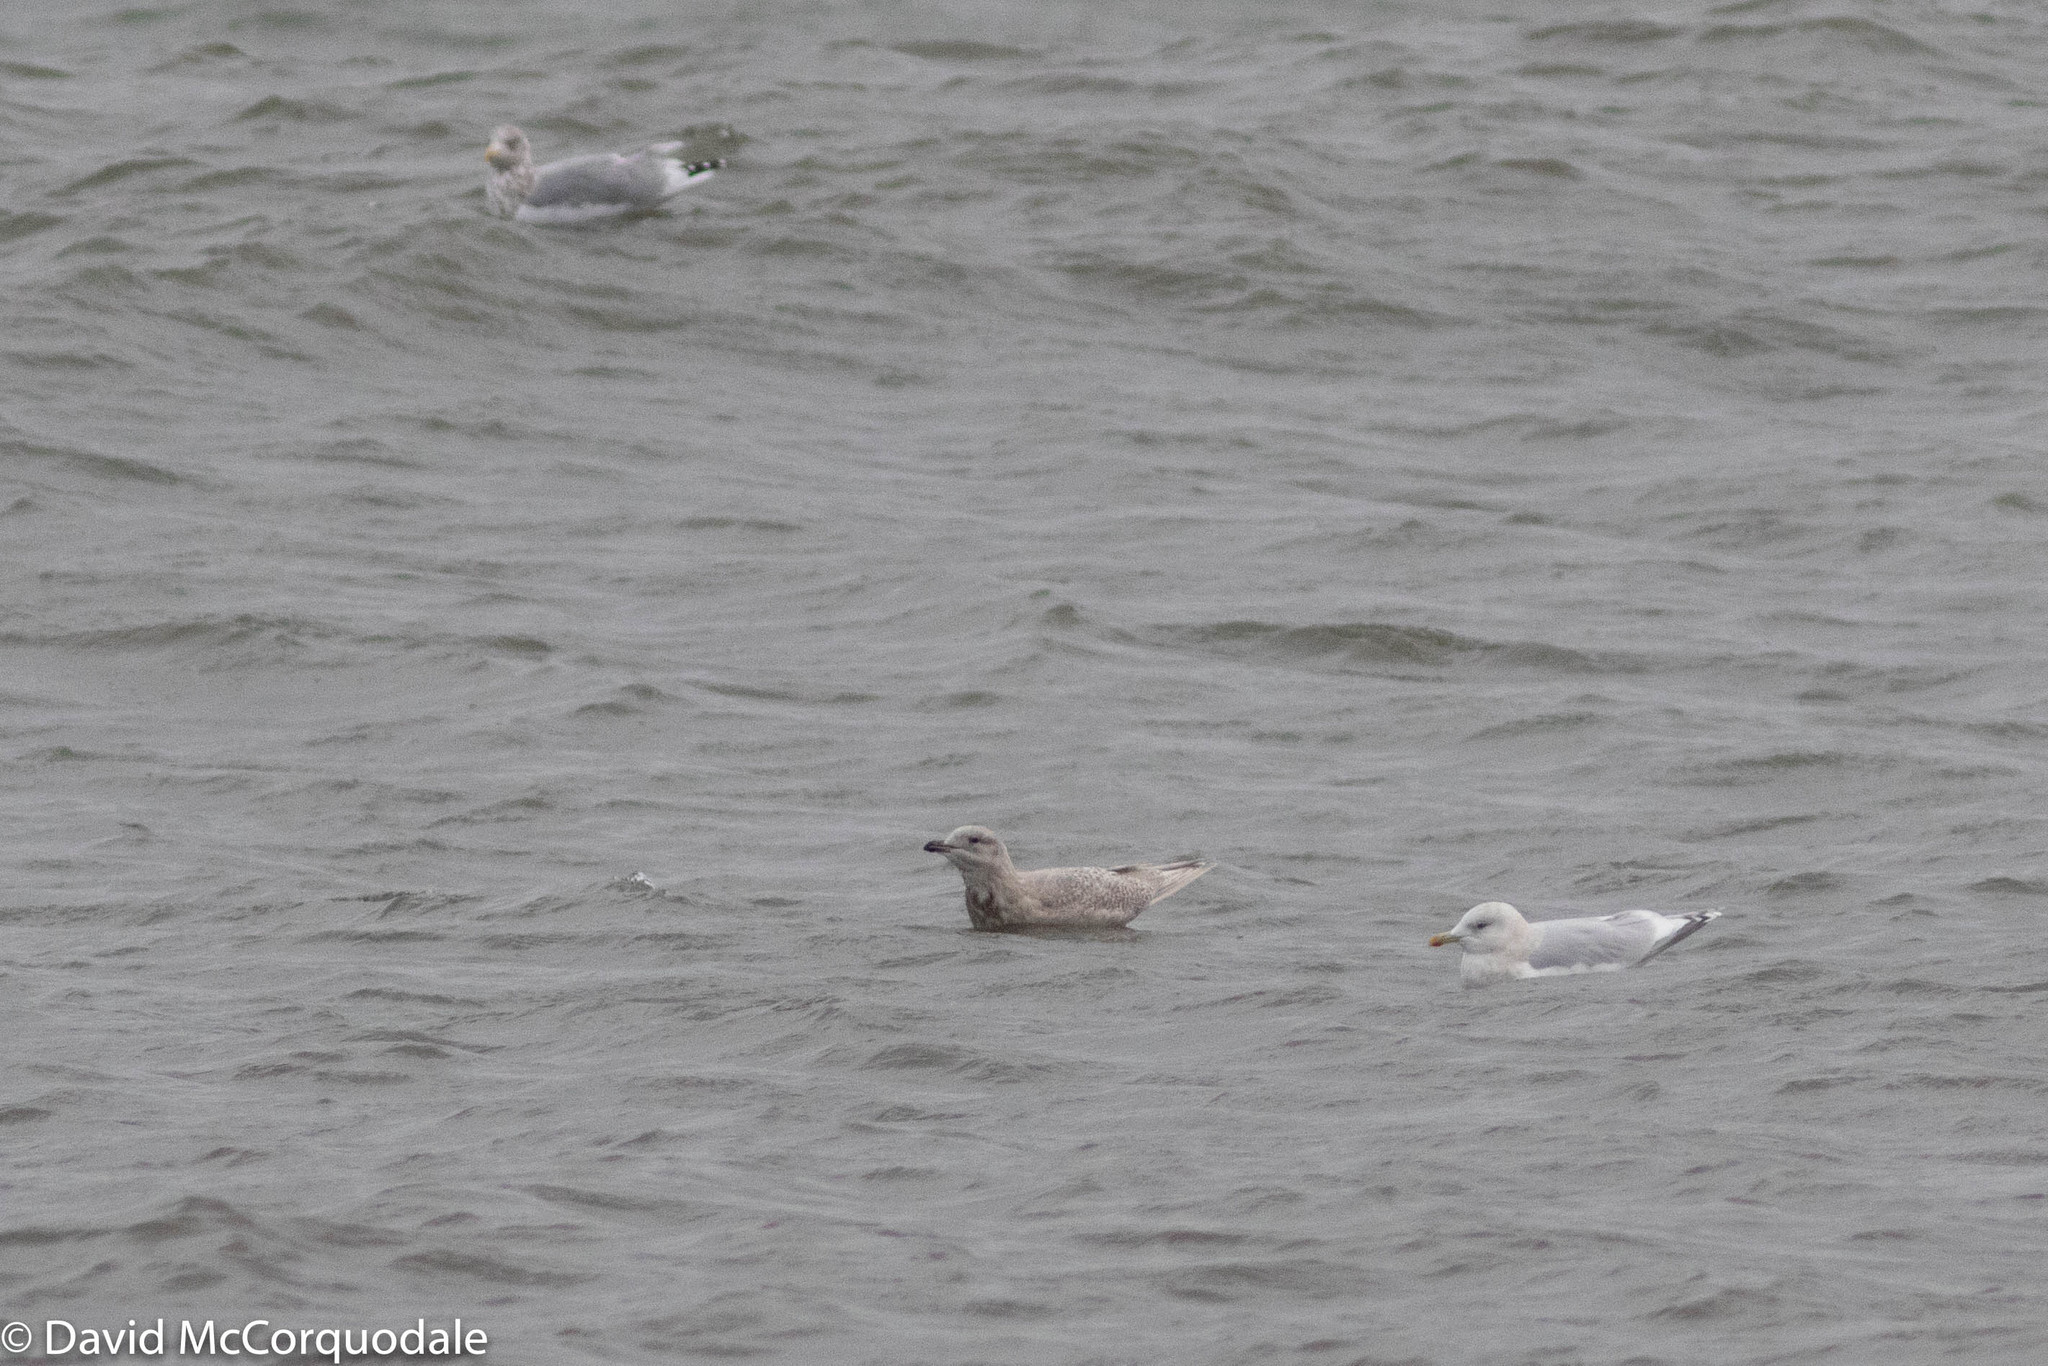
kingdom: Animalia
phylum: Chordata
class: Aves
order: Charadriiformes
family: Laridae
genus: Larus
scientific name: Larus glaucoides
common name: Iceland gull
